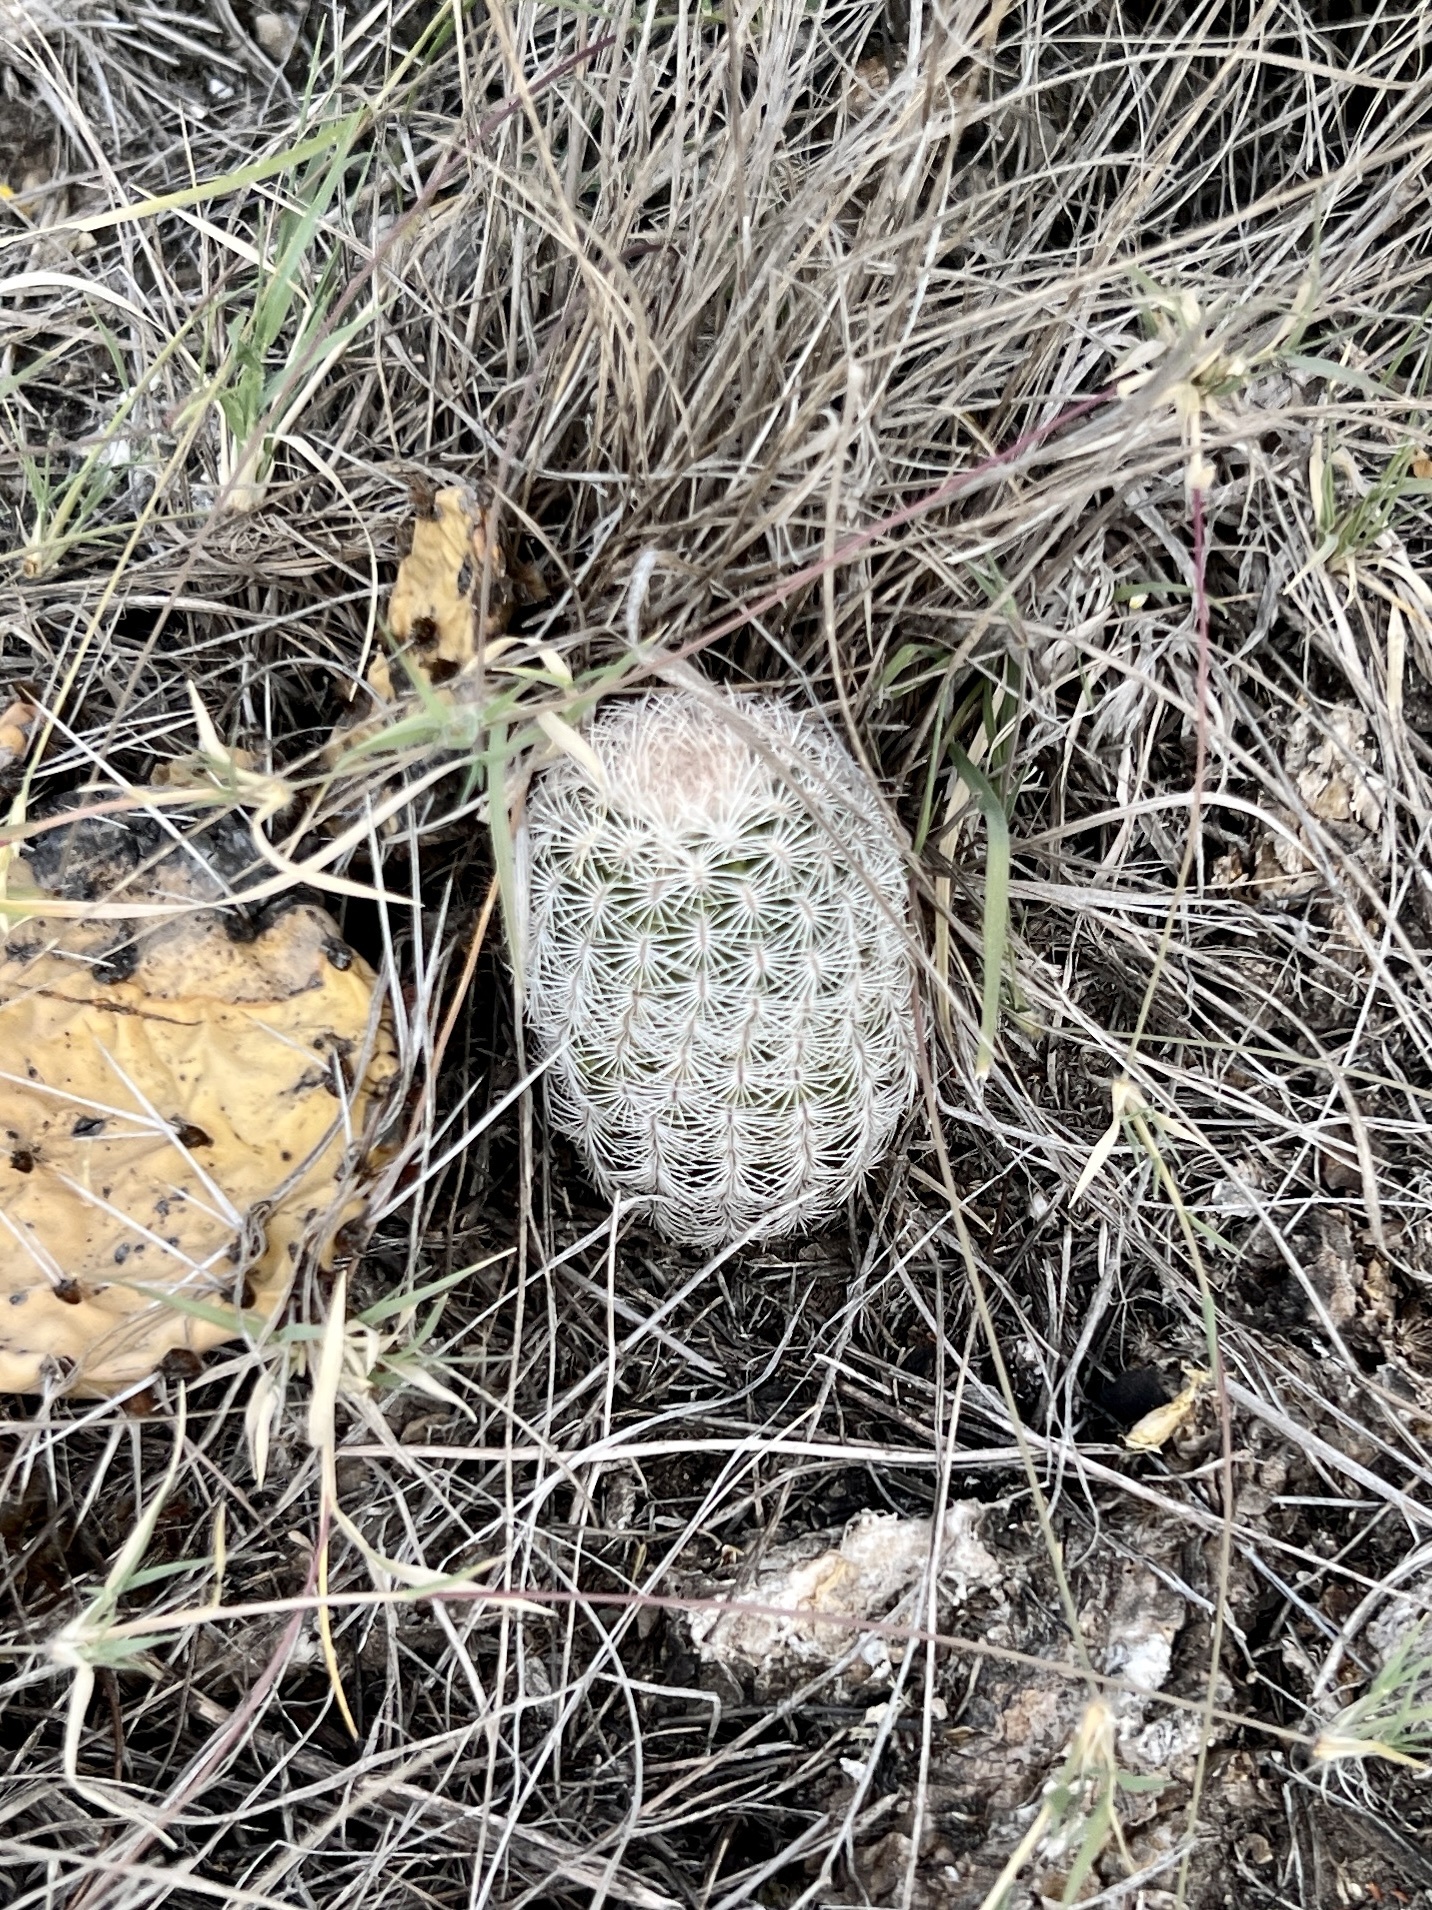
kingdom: Plantae
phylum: Tracheophyta
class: Magnoliopsida
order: Caryophyllales
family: Cactaceae
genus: Echinocereus
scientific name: Echinocereus reichenbachii
